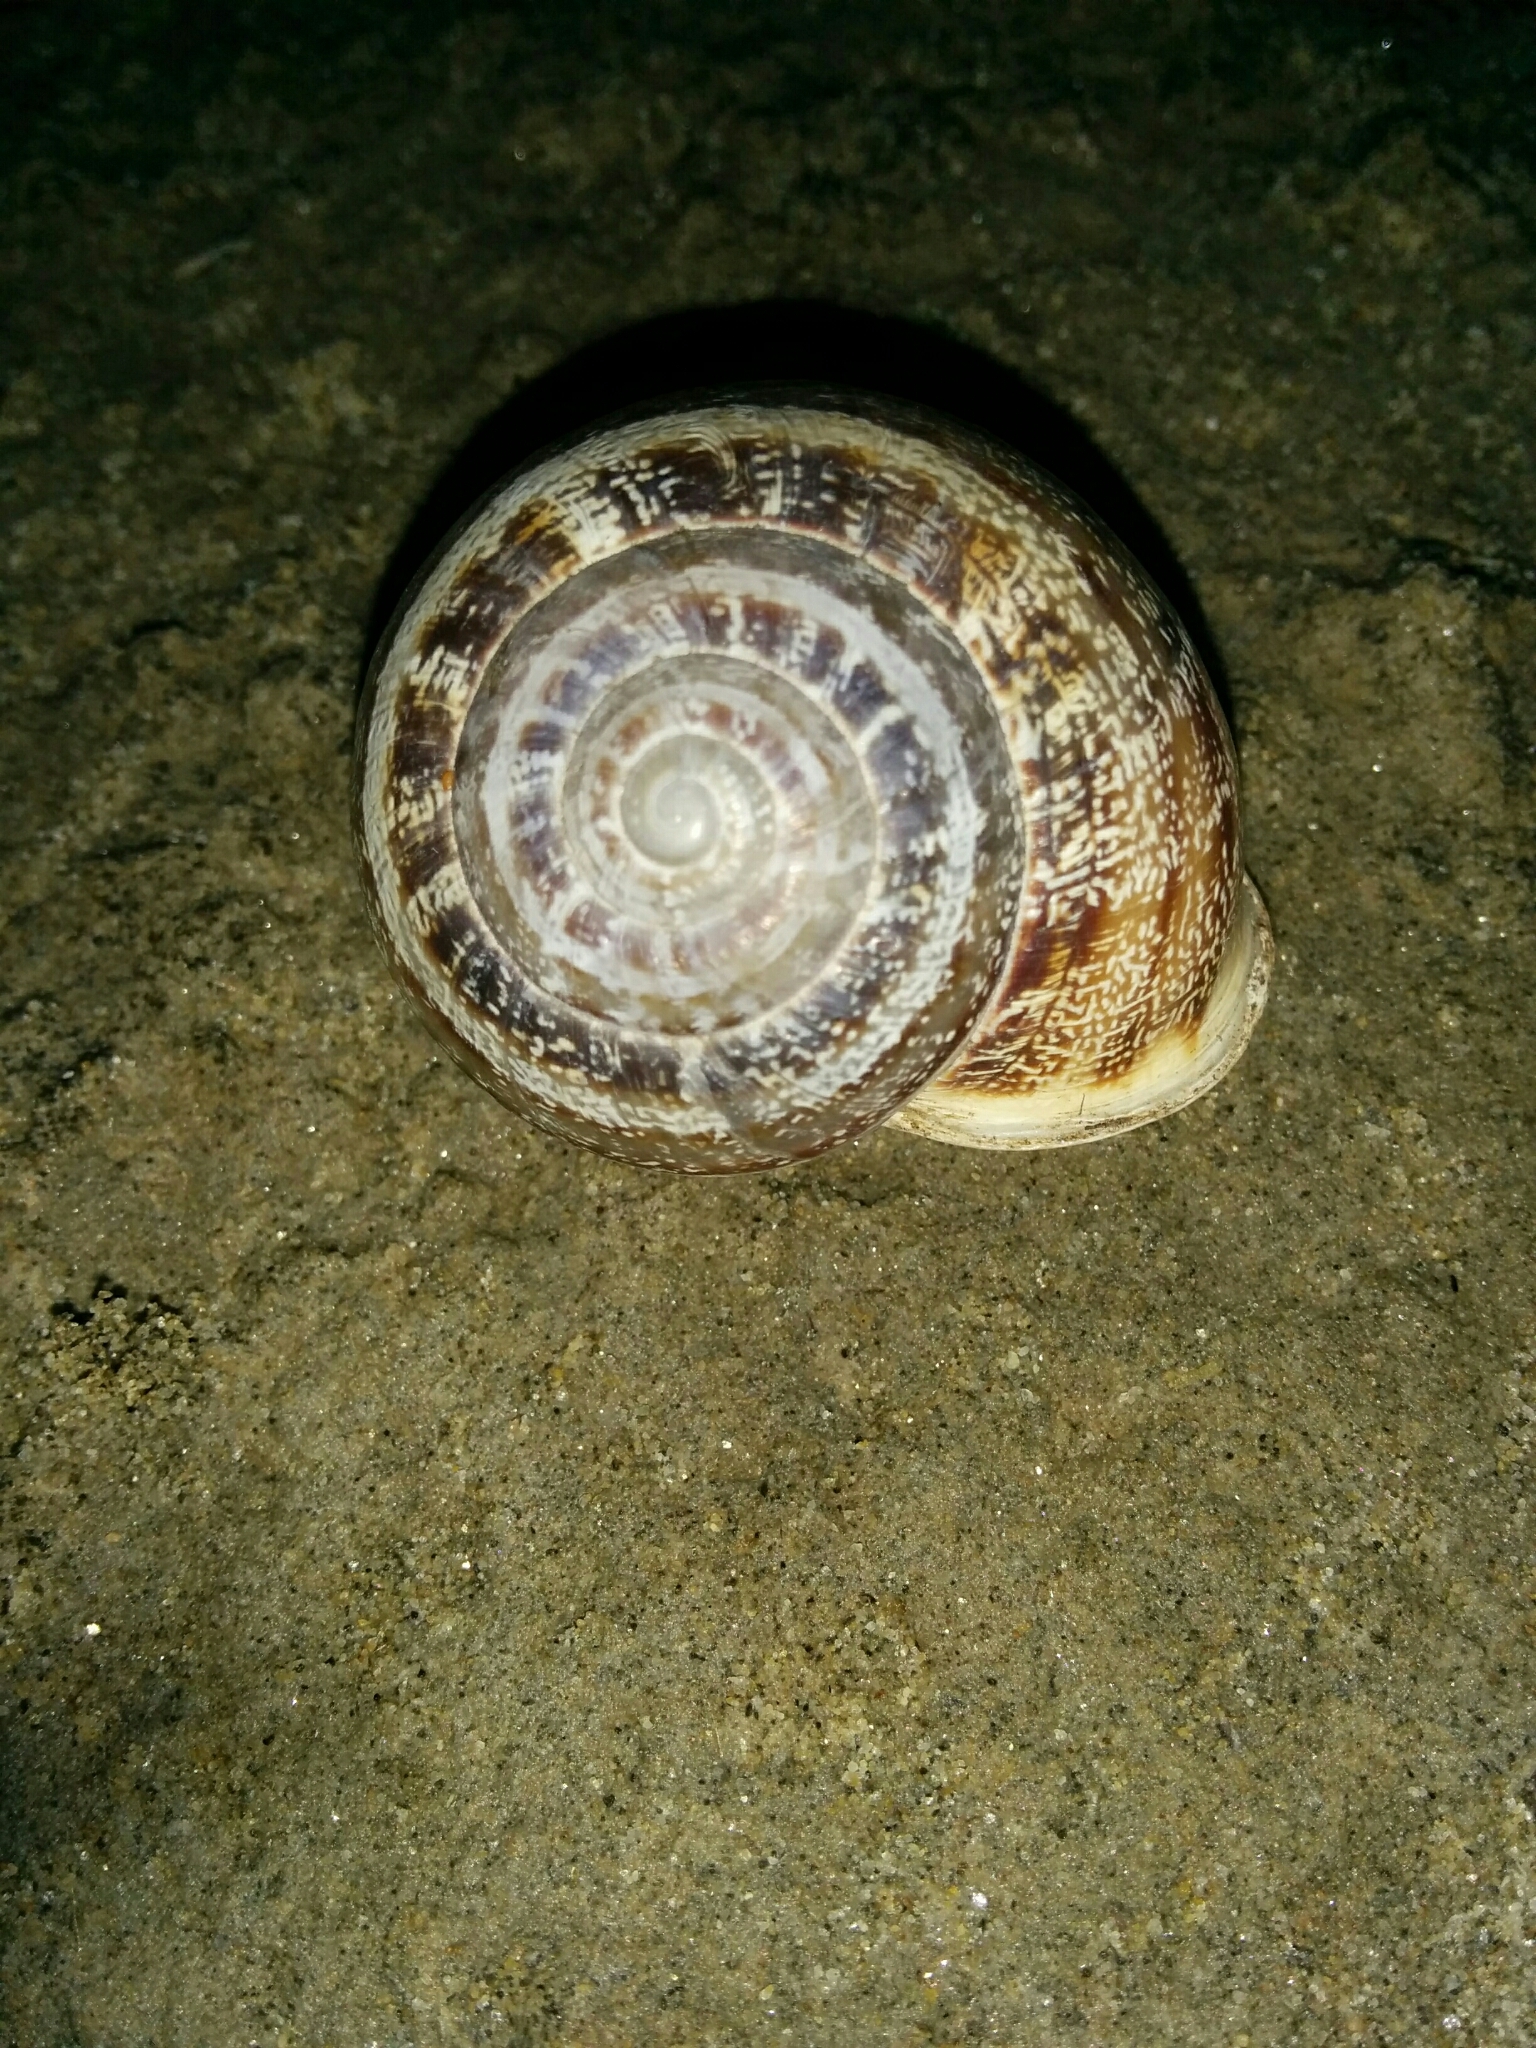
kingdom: Animalia
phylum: Mollusca
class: Gastropoda
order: Stylommatophora
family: Helicidae
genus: Eobania
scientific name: Eobania vermiculata
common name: Chocolateband snail
